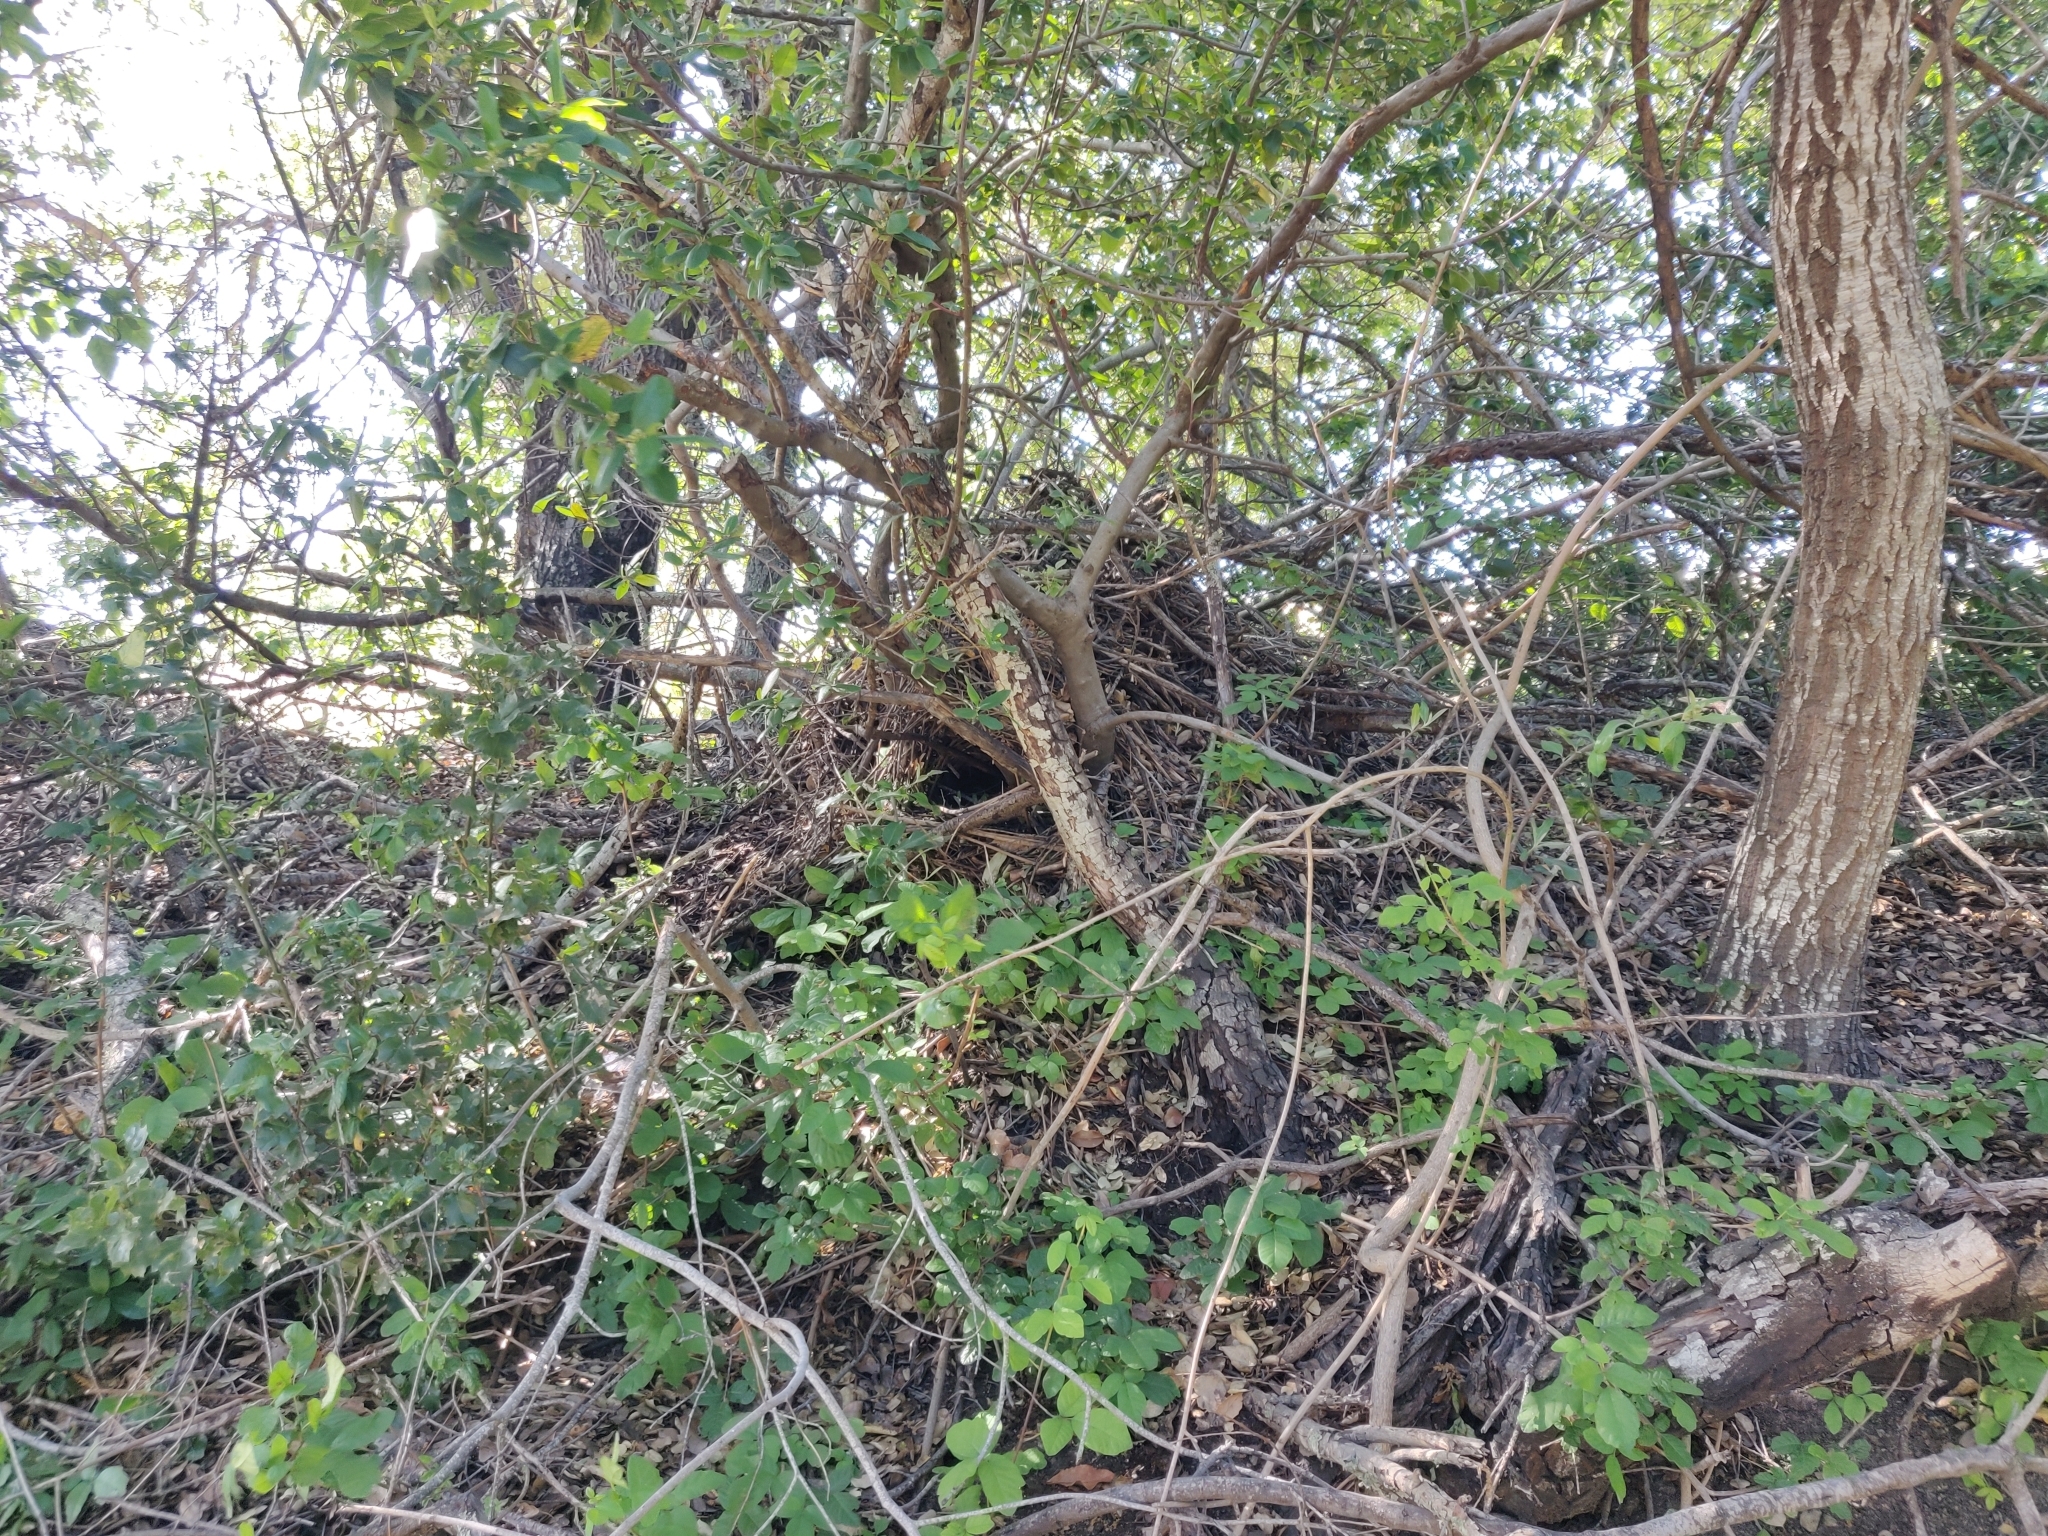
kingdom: Animalia
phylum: Chordata
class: Mammalia
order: Rodentia
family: Cricetidae
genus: Neotoma
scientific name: Neotoma fuscipes
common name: Dusky-footed woodrat
